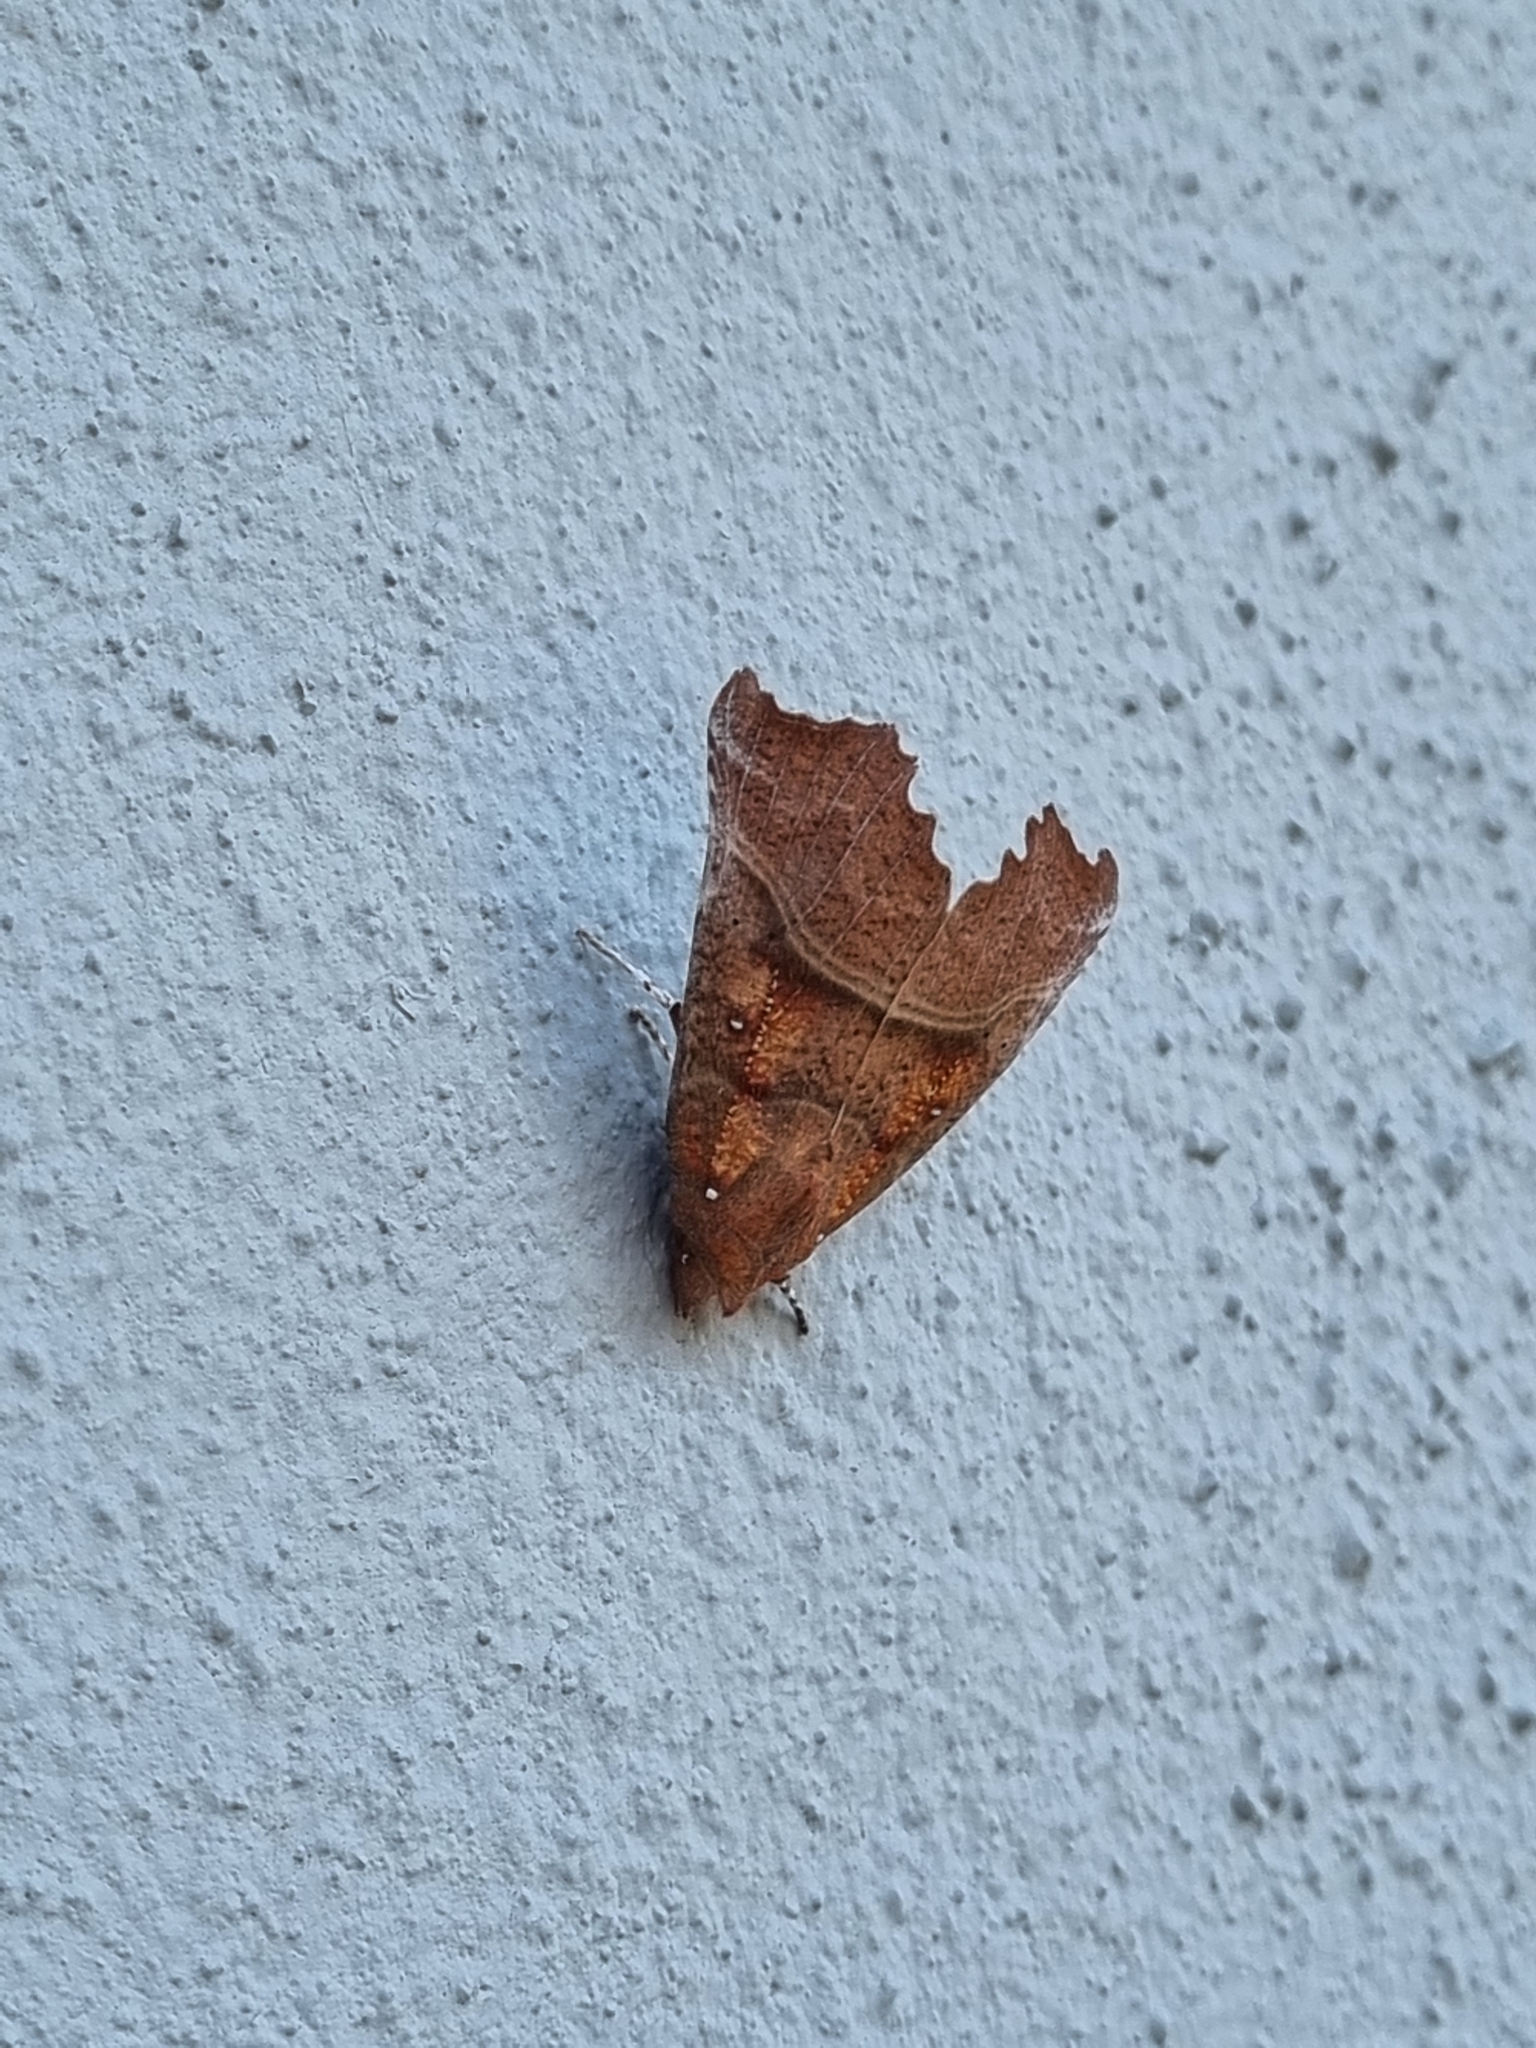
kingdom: Animalia
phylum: Arthropoda
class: Insecta
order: Lepidoptera
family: Erebidae
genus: Scoliopteryx
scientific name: Scoliopteryx libatrix
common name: Herald
